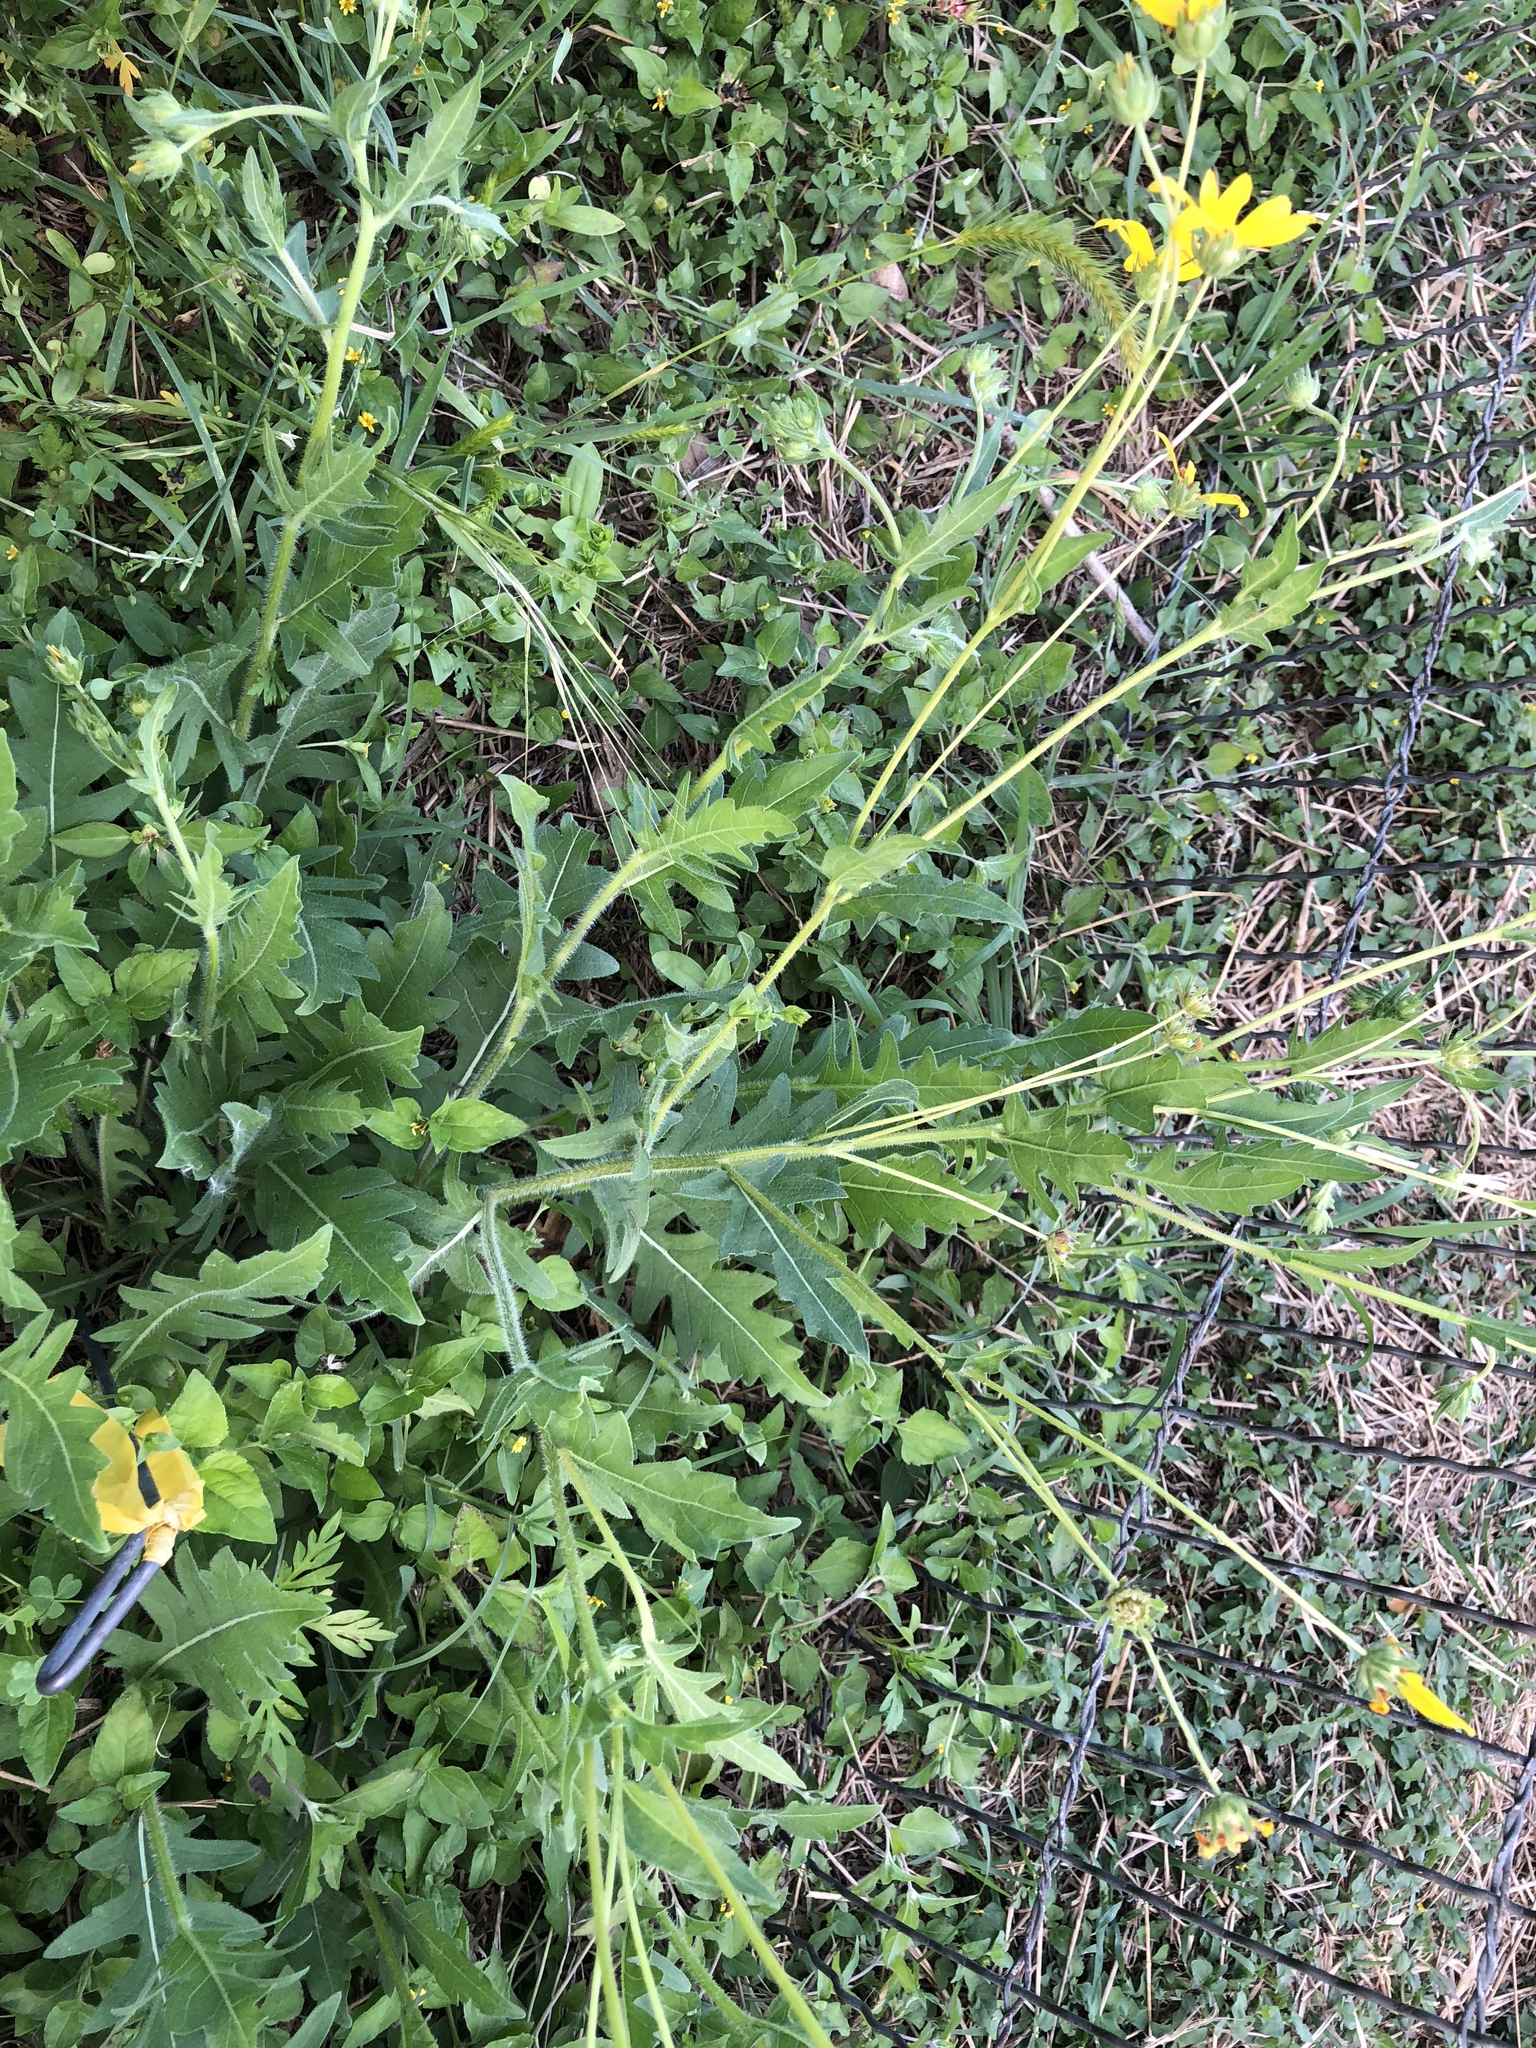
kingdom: Plantae
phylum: Tracheophyta
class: Magnoliopsida
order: Asterales
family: Asteraceae
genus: Engelmannia
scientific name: Engelmannia peristenia
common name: Engelmann's daisy
